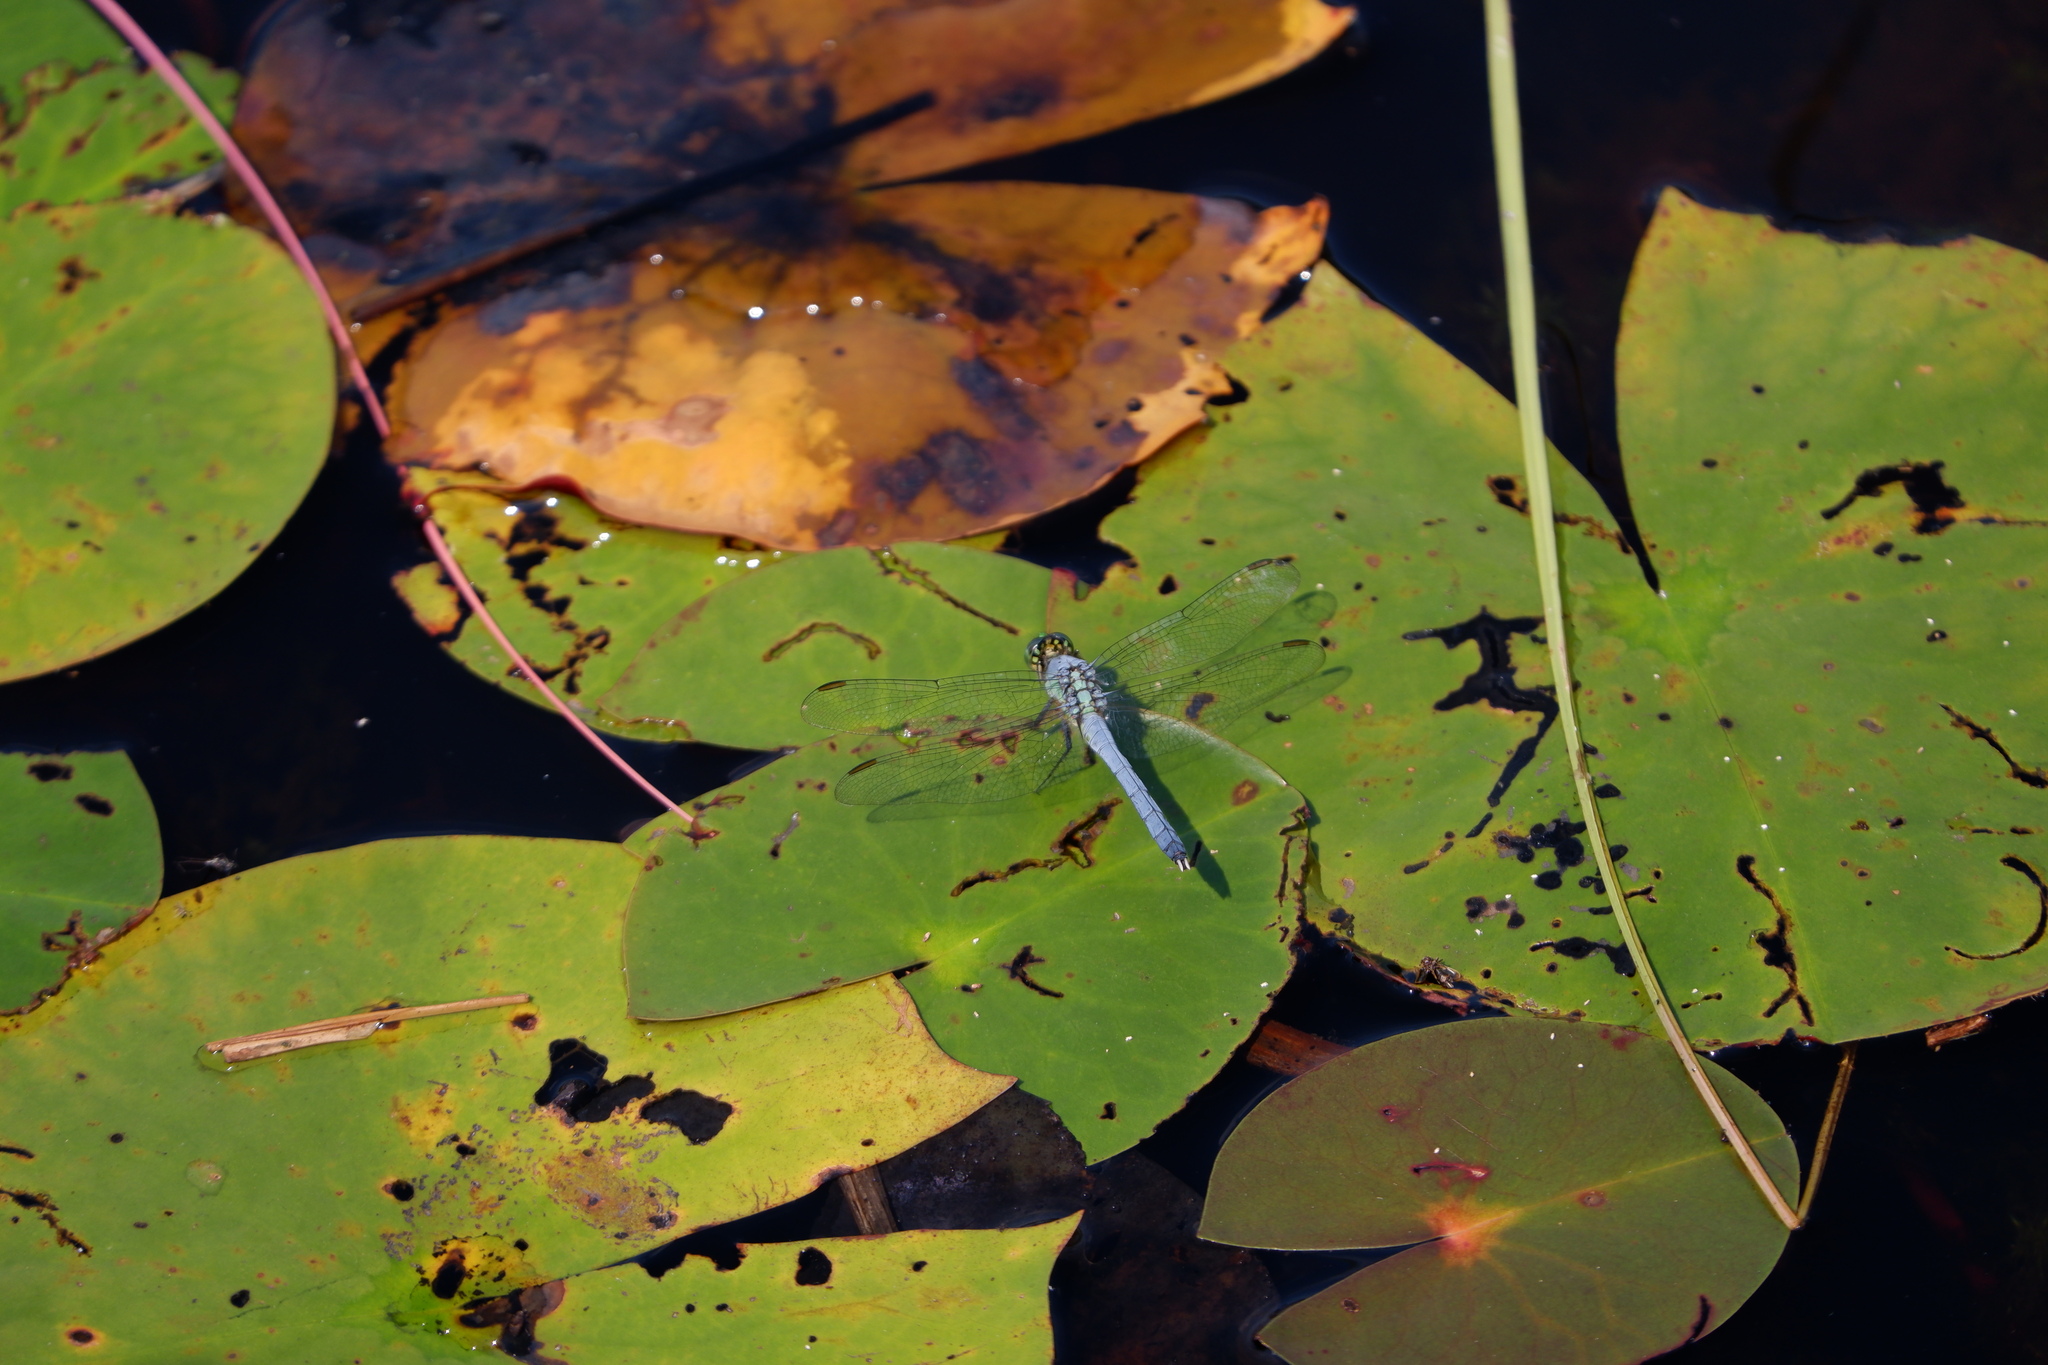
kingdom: Animalia
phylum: Arthropoda
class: Insecta
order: Odonata
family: Libellulidae
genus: Erythemis
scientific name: Erythemis simplicicollis
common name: Eastern pondhawk
